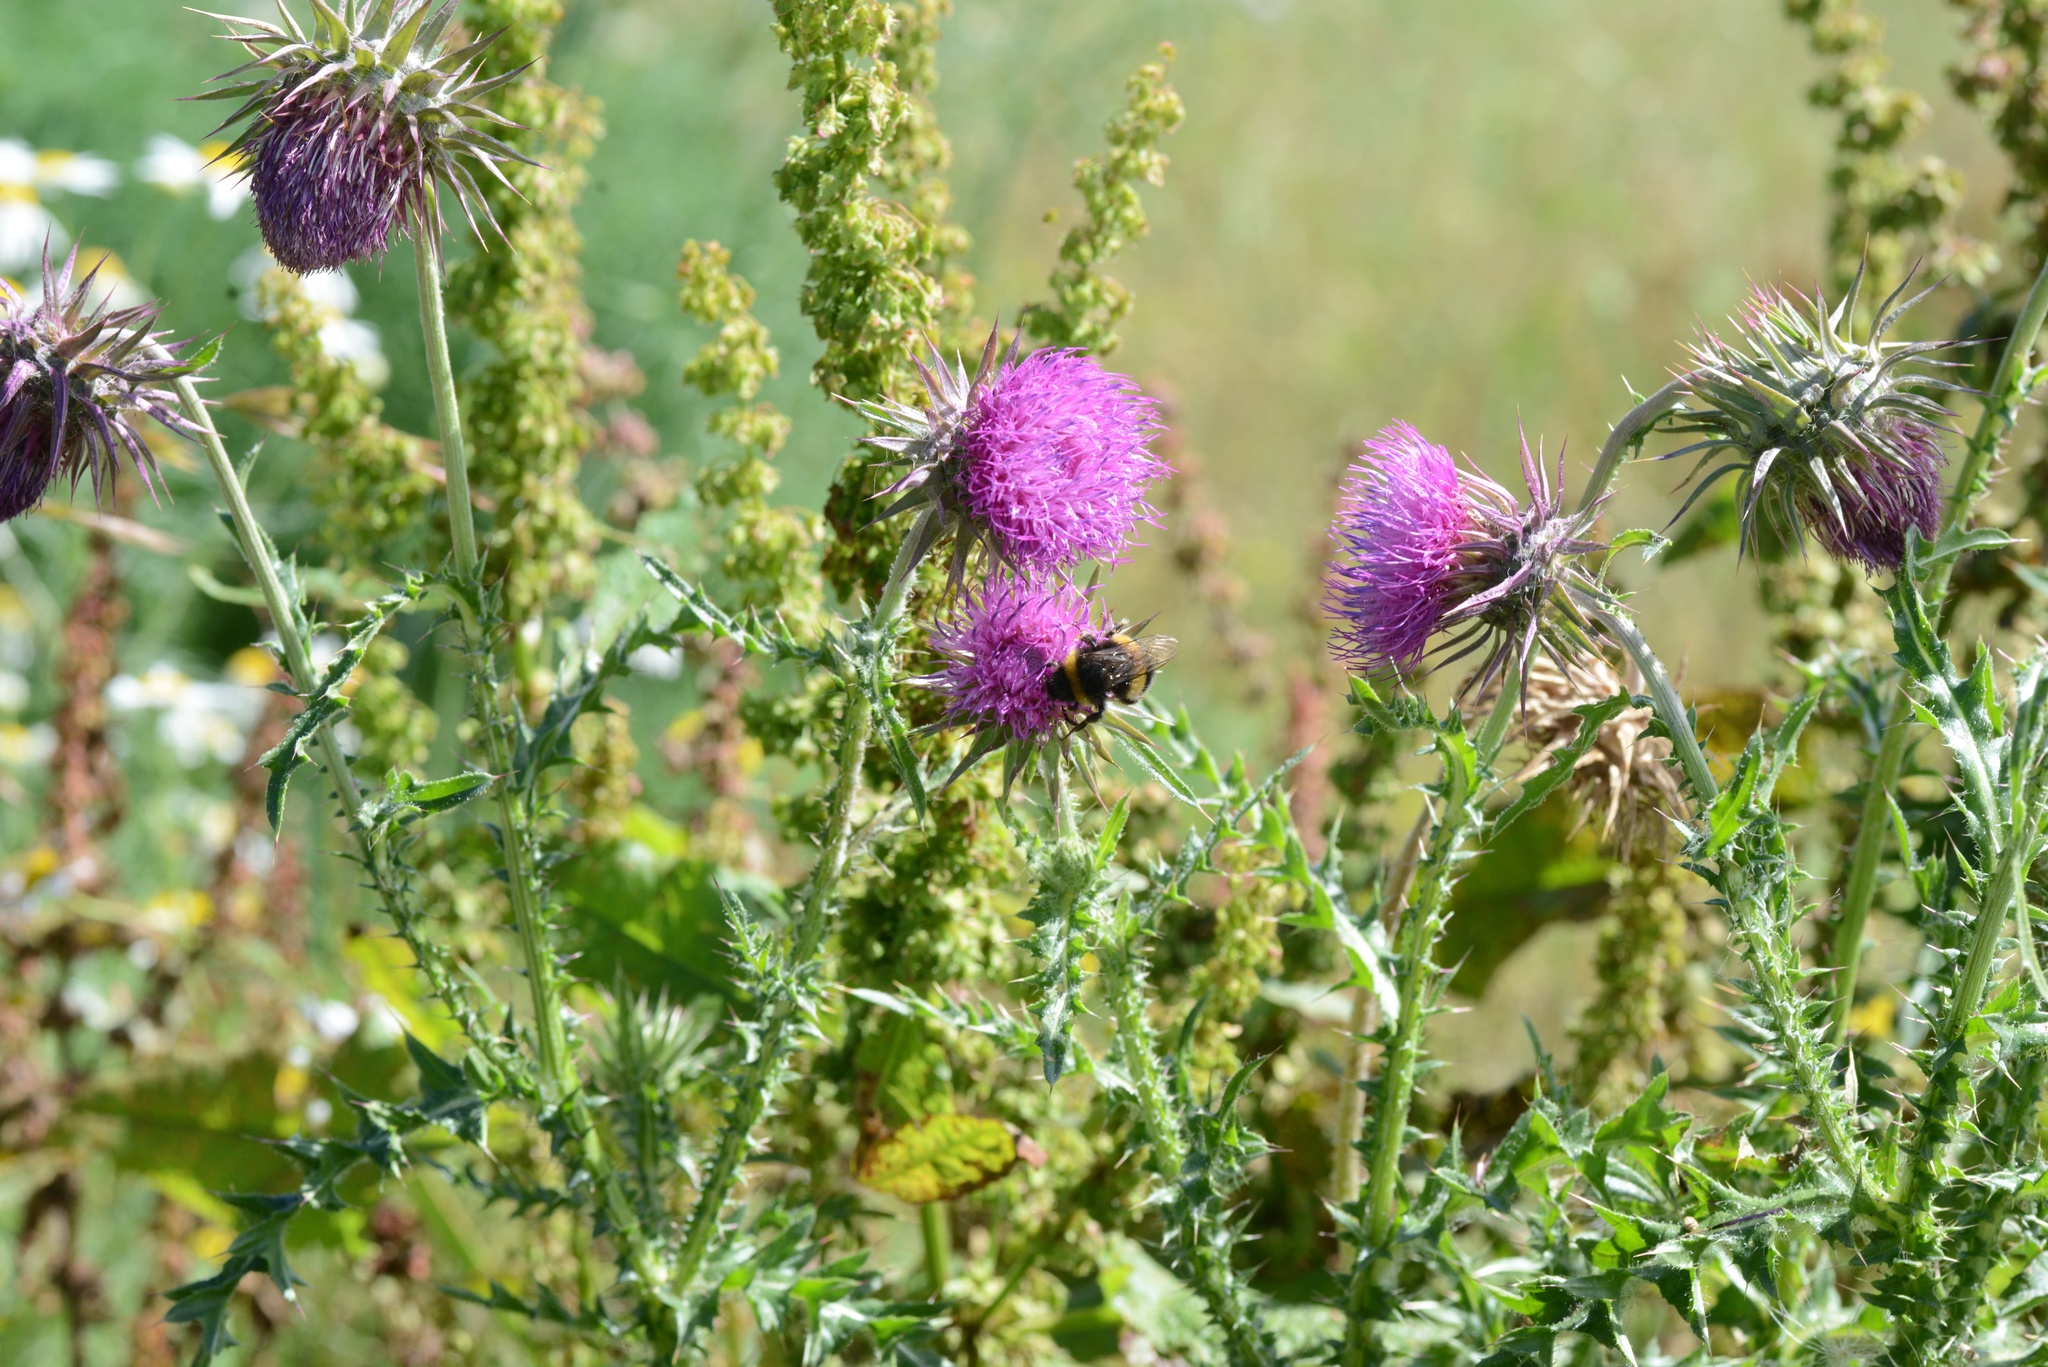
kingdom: Plantae
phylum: Tracheophyta
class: Magnoliopsida
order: Asterales
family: Asteraceae
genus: Carduus
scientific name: Carduus nutans
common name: Musk thistle
